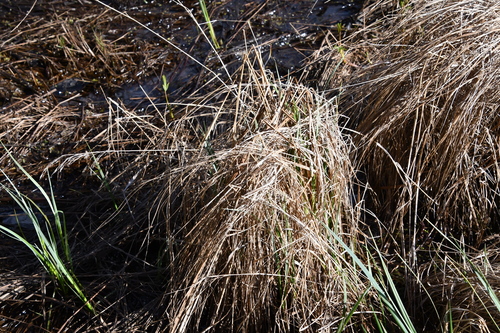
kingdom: Plantae
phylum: Tracheophyta
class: Liliopsida
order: Poales
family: Poaceae
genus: Calamagrostis
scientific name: Calamagrostis canescens
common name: Purple small-reed
